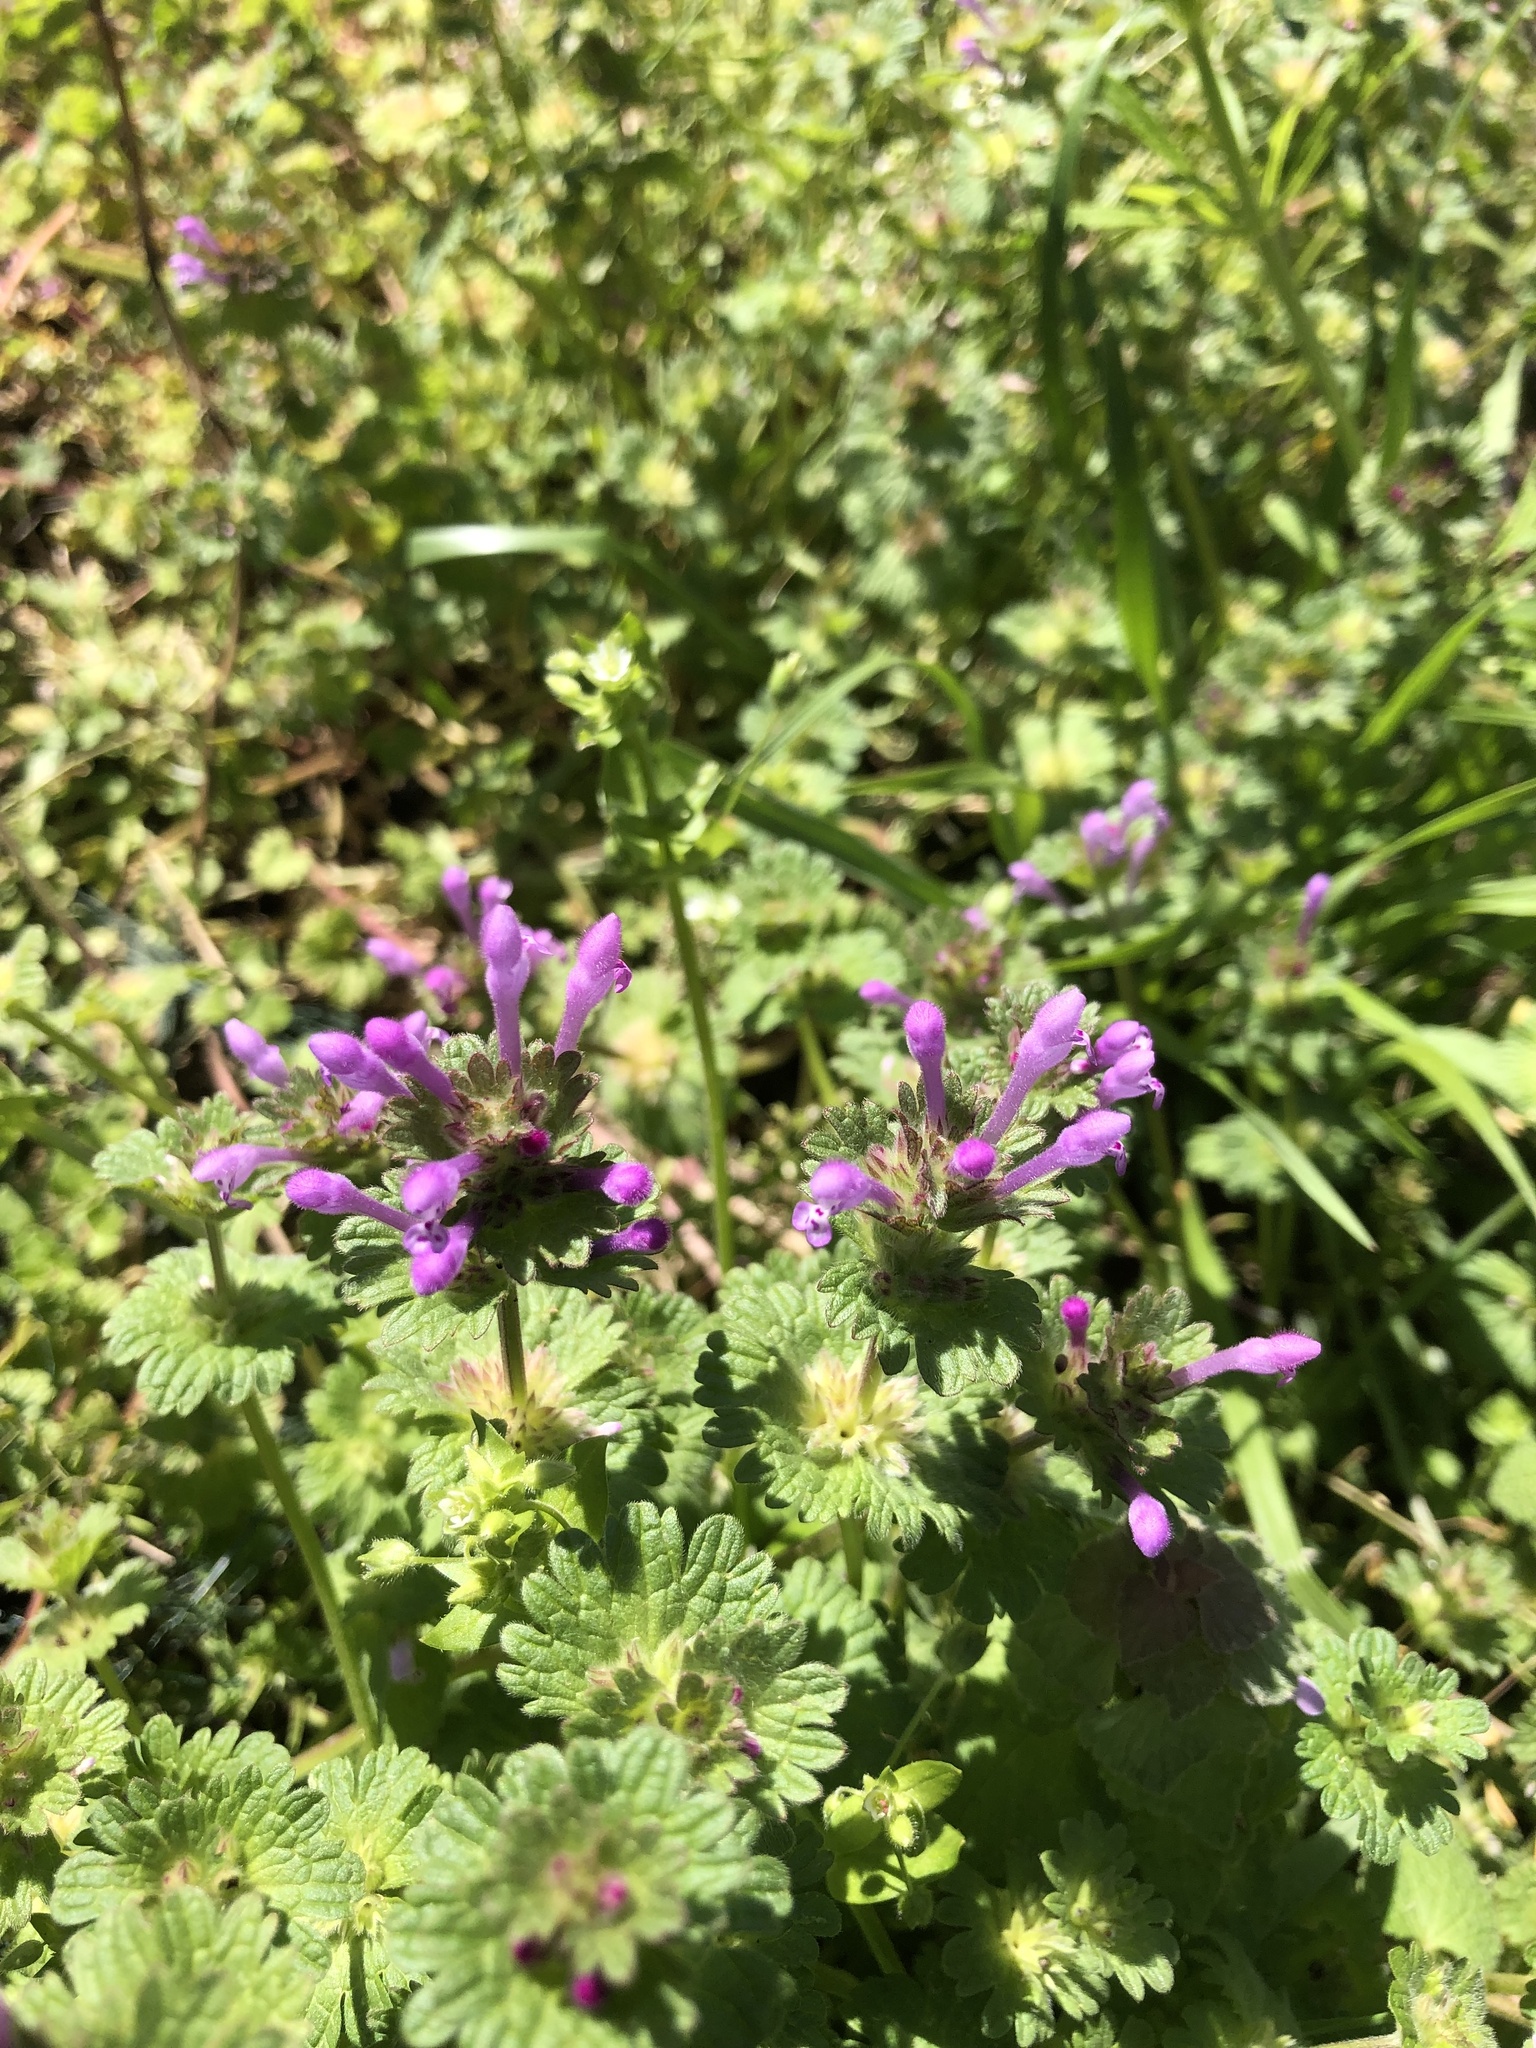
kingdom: Plantae
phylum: Tracheophyta
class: Magnoliopsida
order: Lamiales
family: Lamiaceae
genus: Lamium
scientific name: Lamium amplexicaule
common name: Henbit dead-nettle
